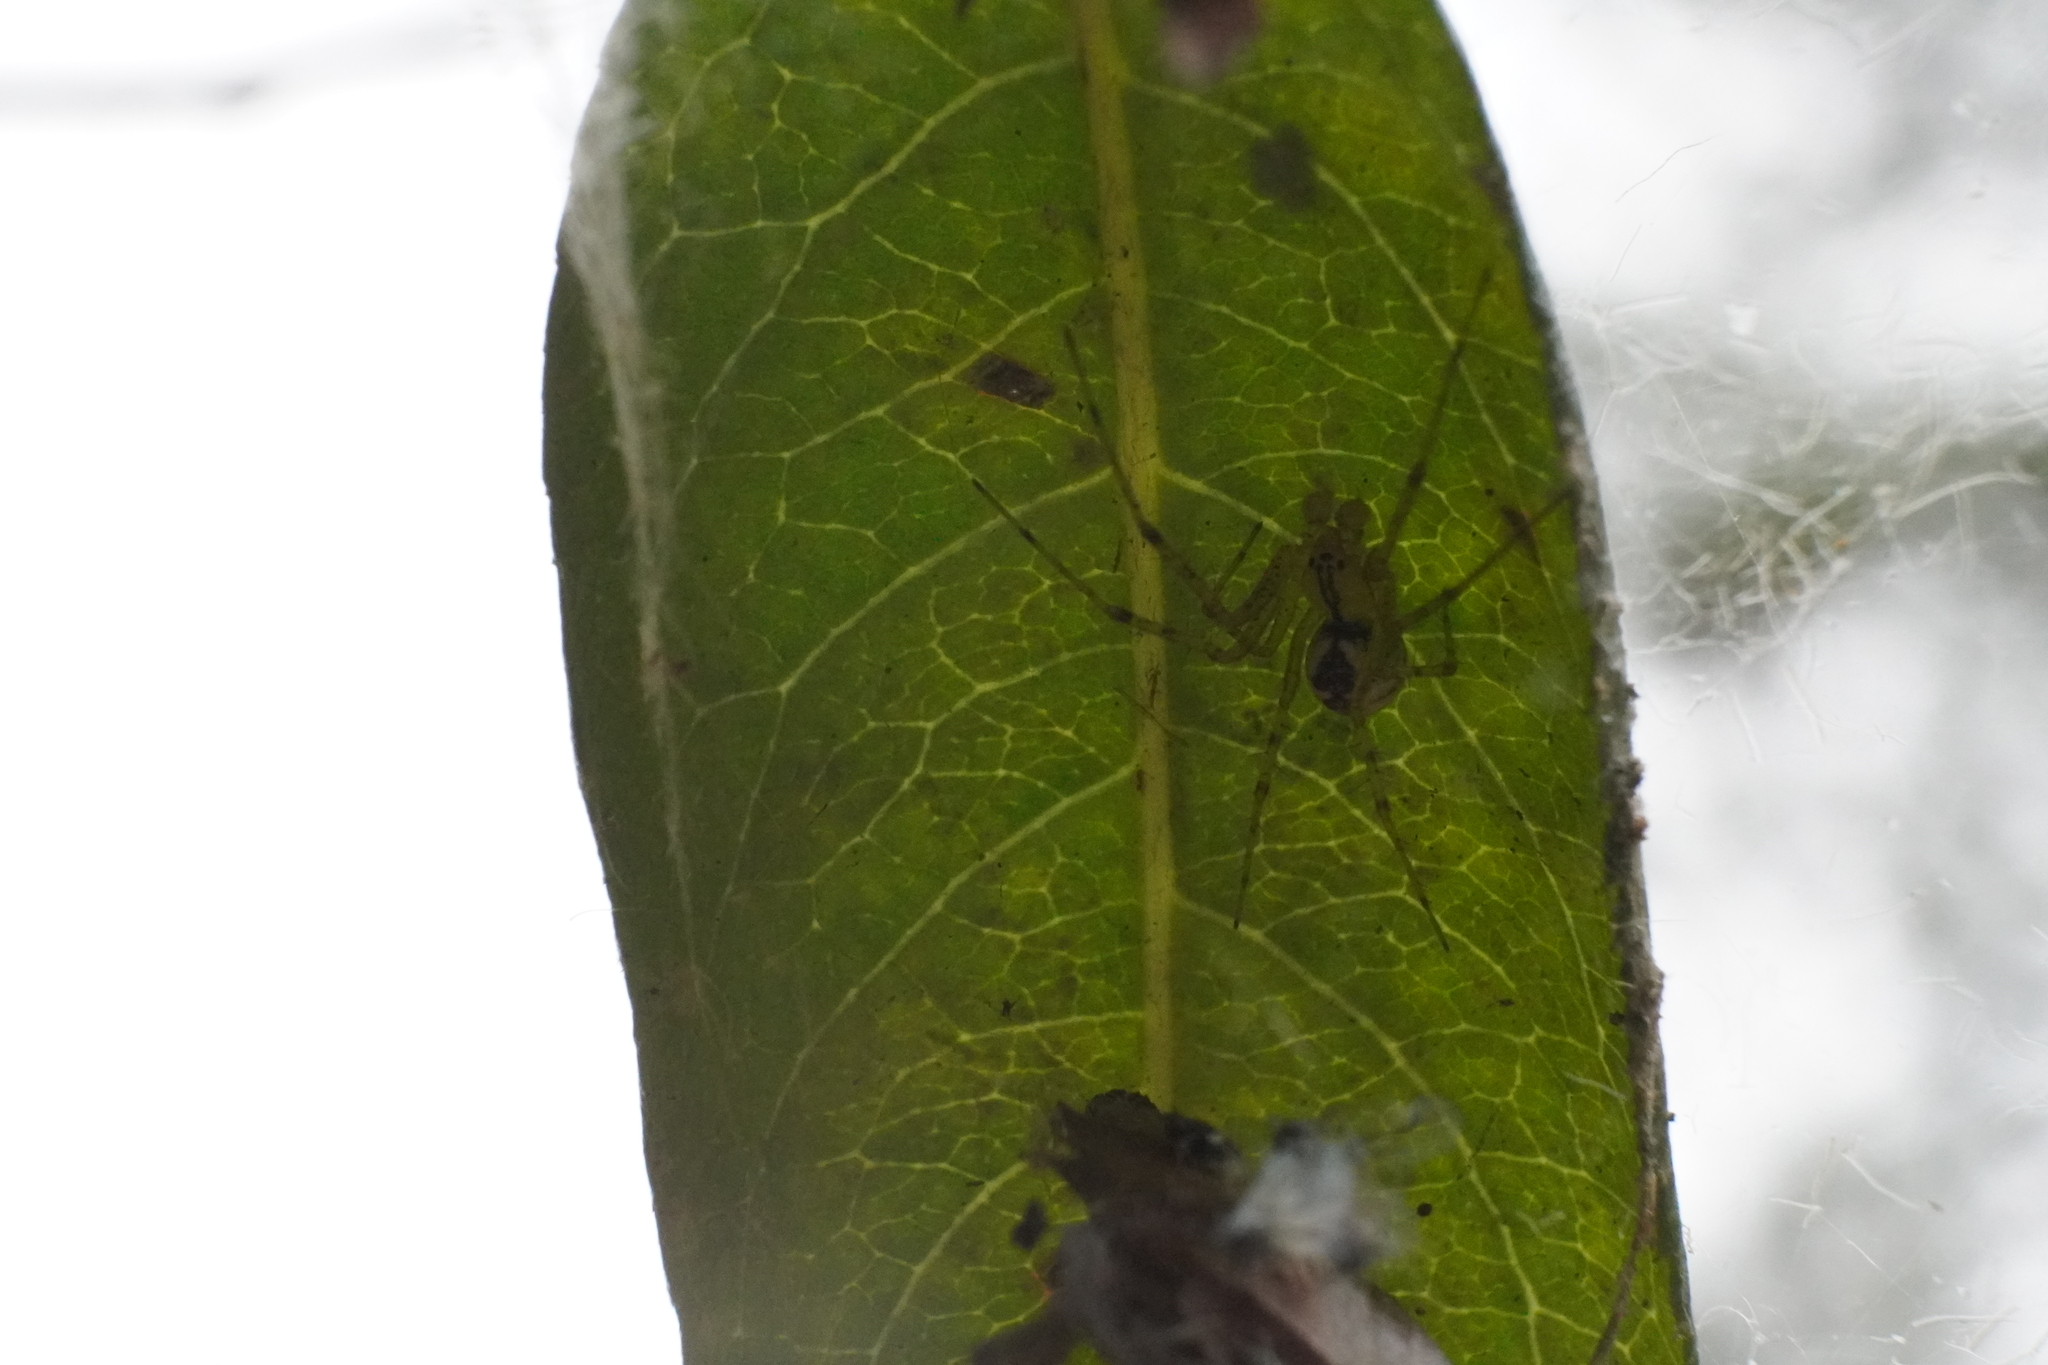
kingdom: Animalia
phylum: Arthropoda
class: Arachnida
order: Araneae
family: Linyphiidae
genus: Pityohyphantes
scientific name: Pityohyphantes costatus
